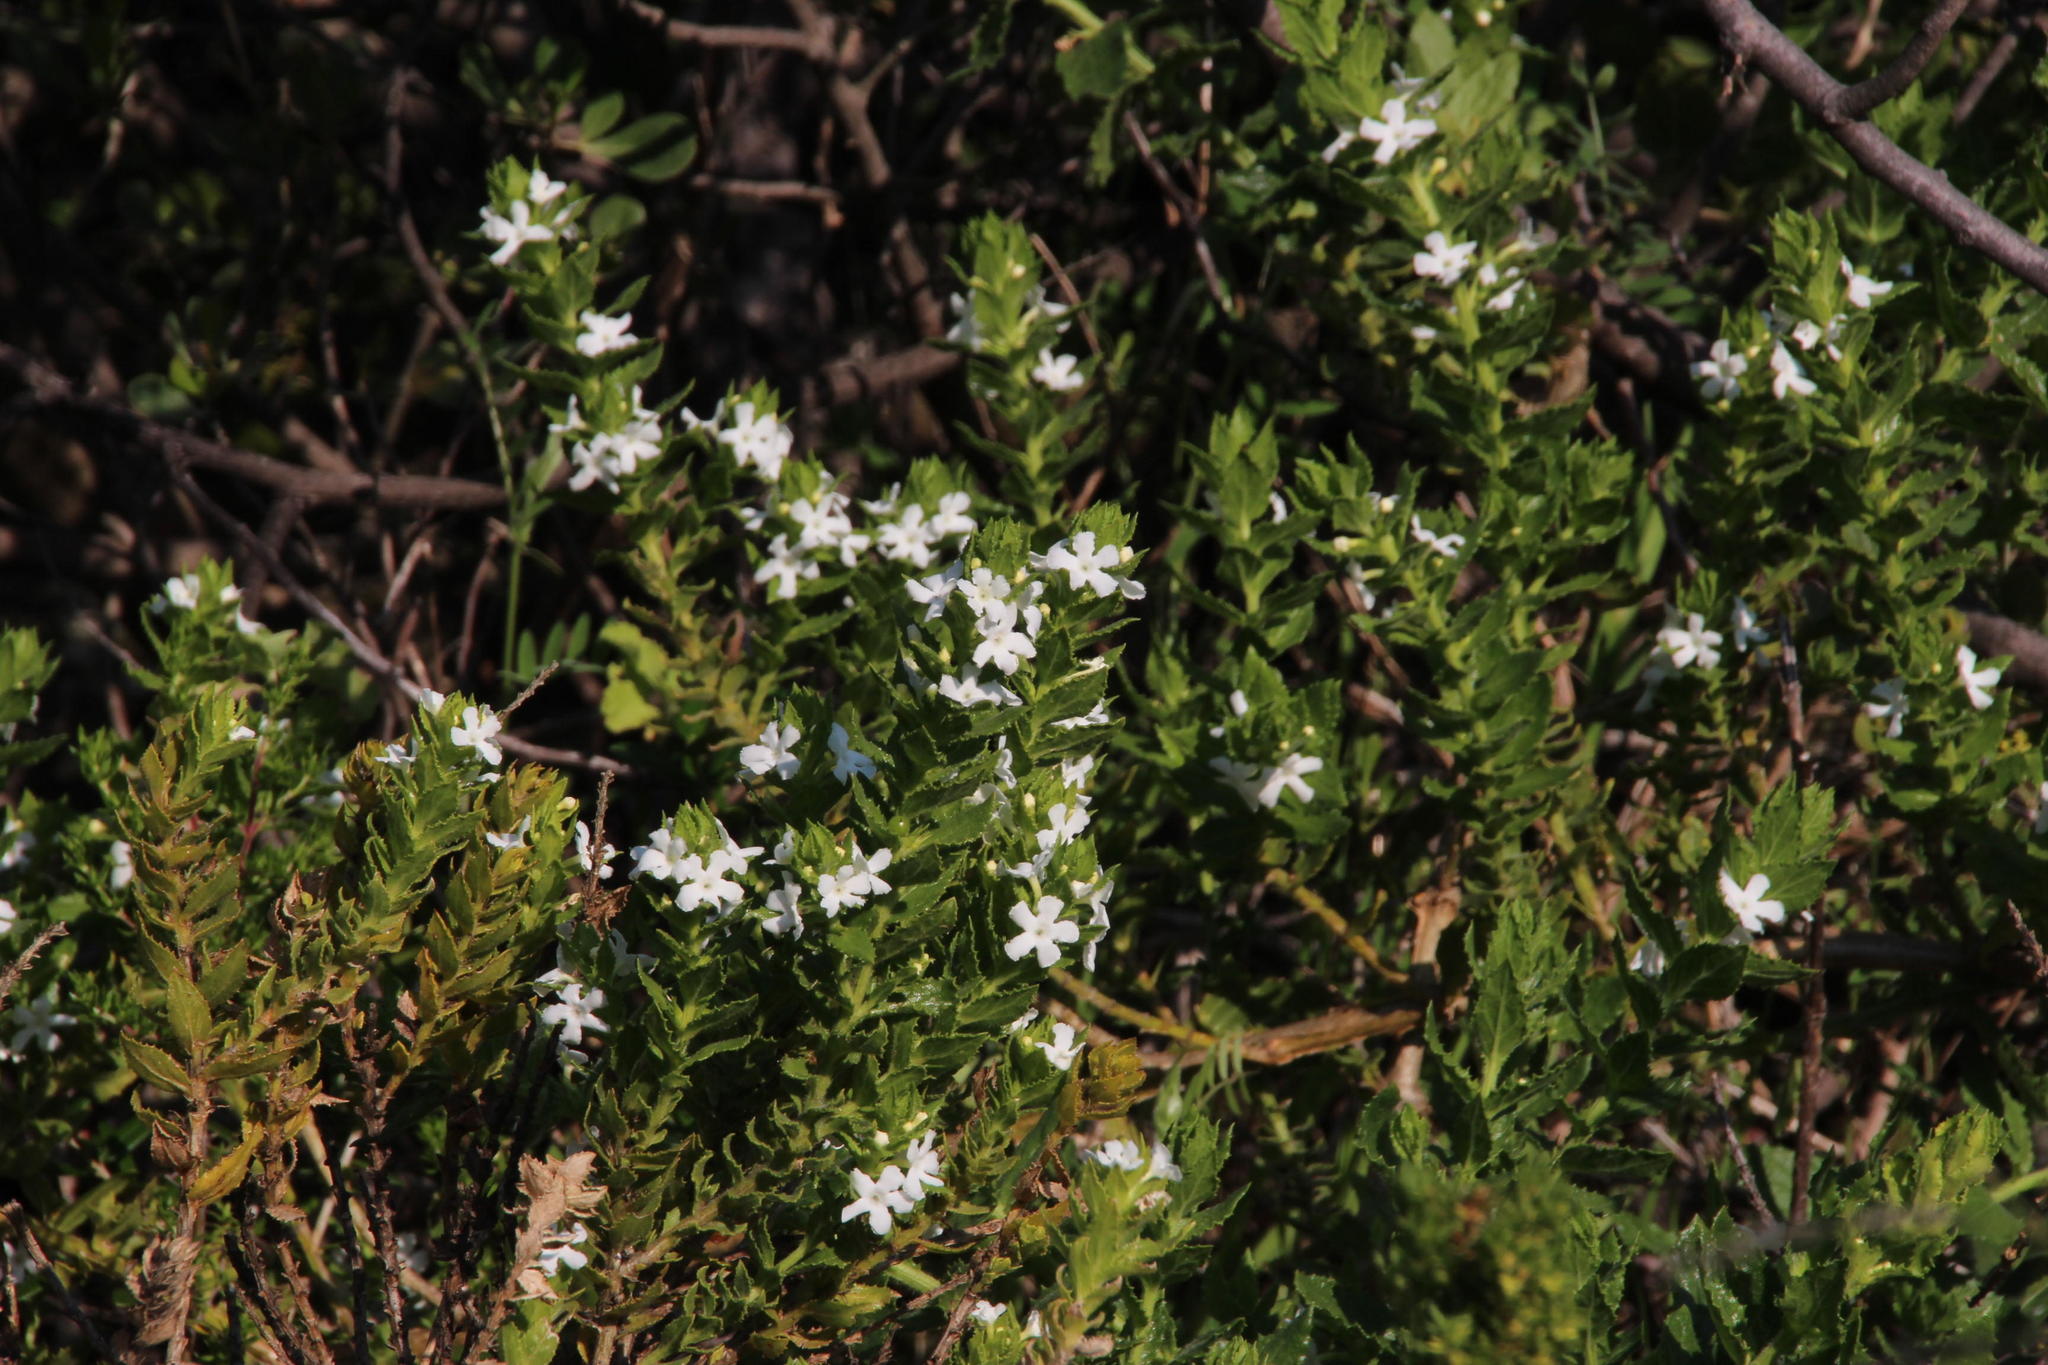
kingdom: Plantae
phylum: Tracheophyta
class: Magnoliopsida
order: Lamiales
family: Scrophulariaceae
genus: Oftia
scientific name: Oftia africana
